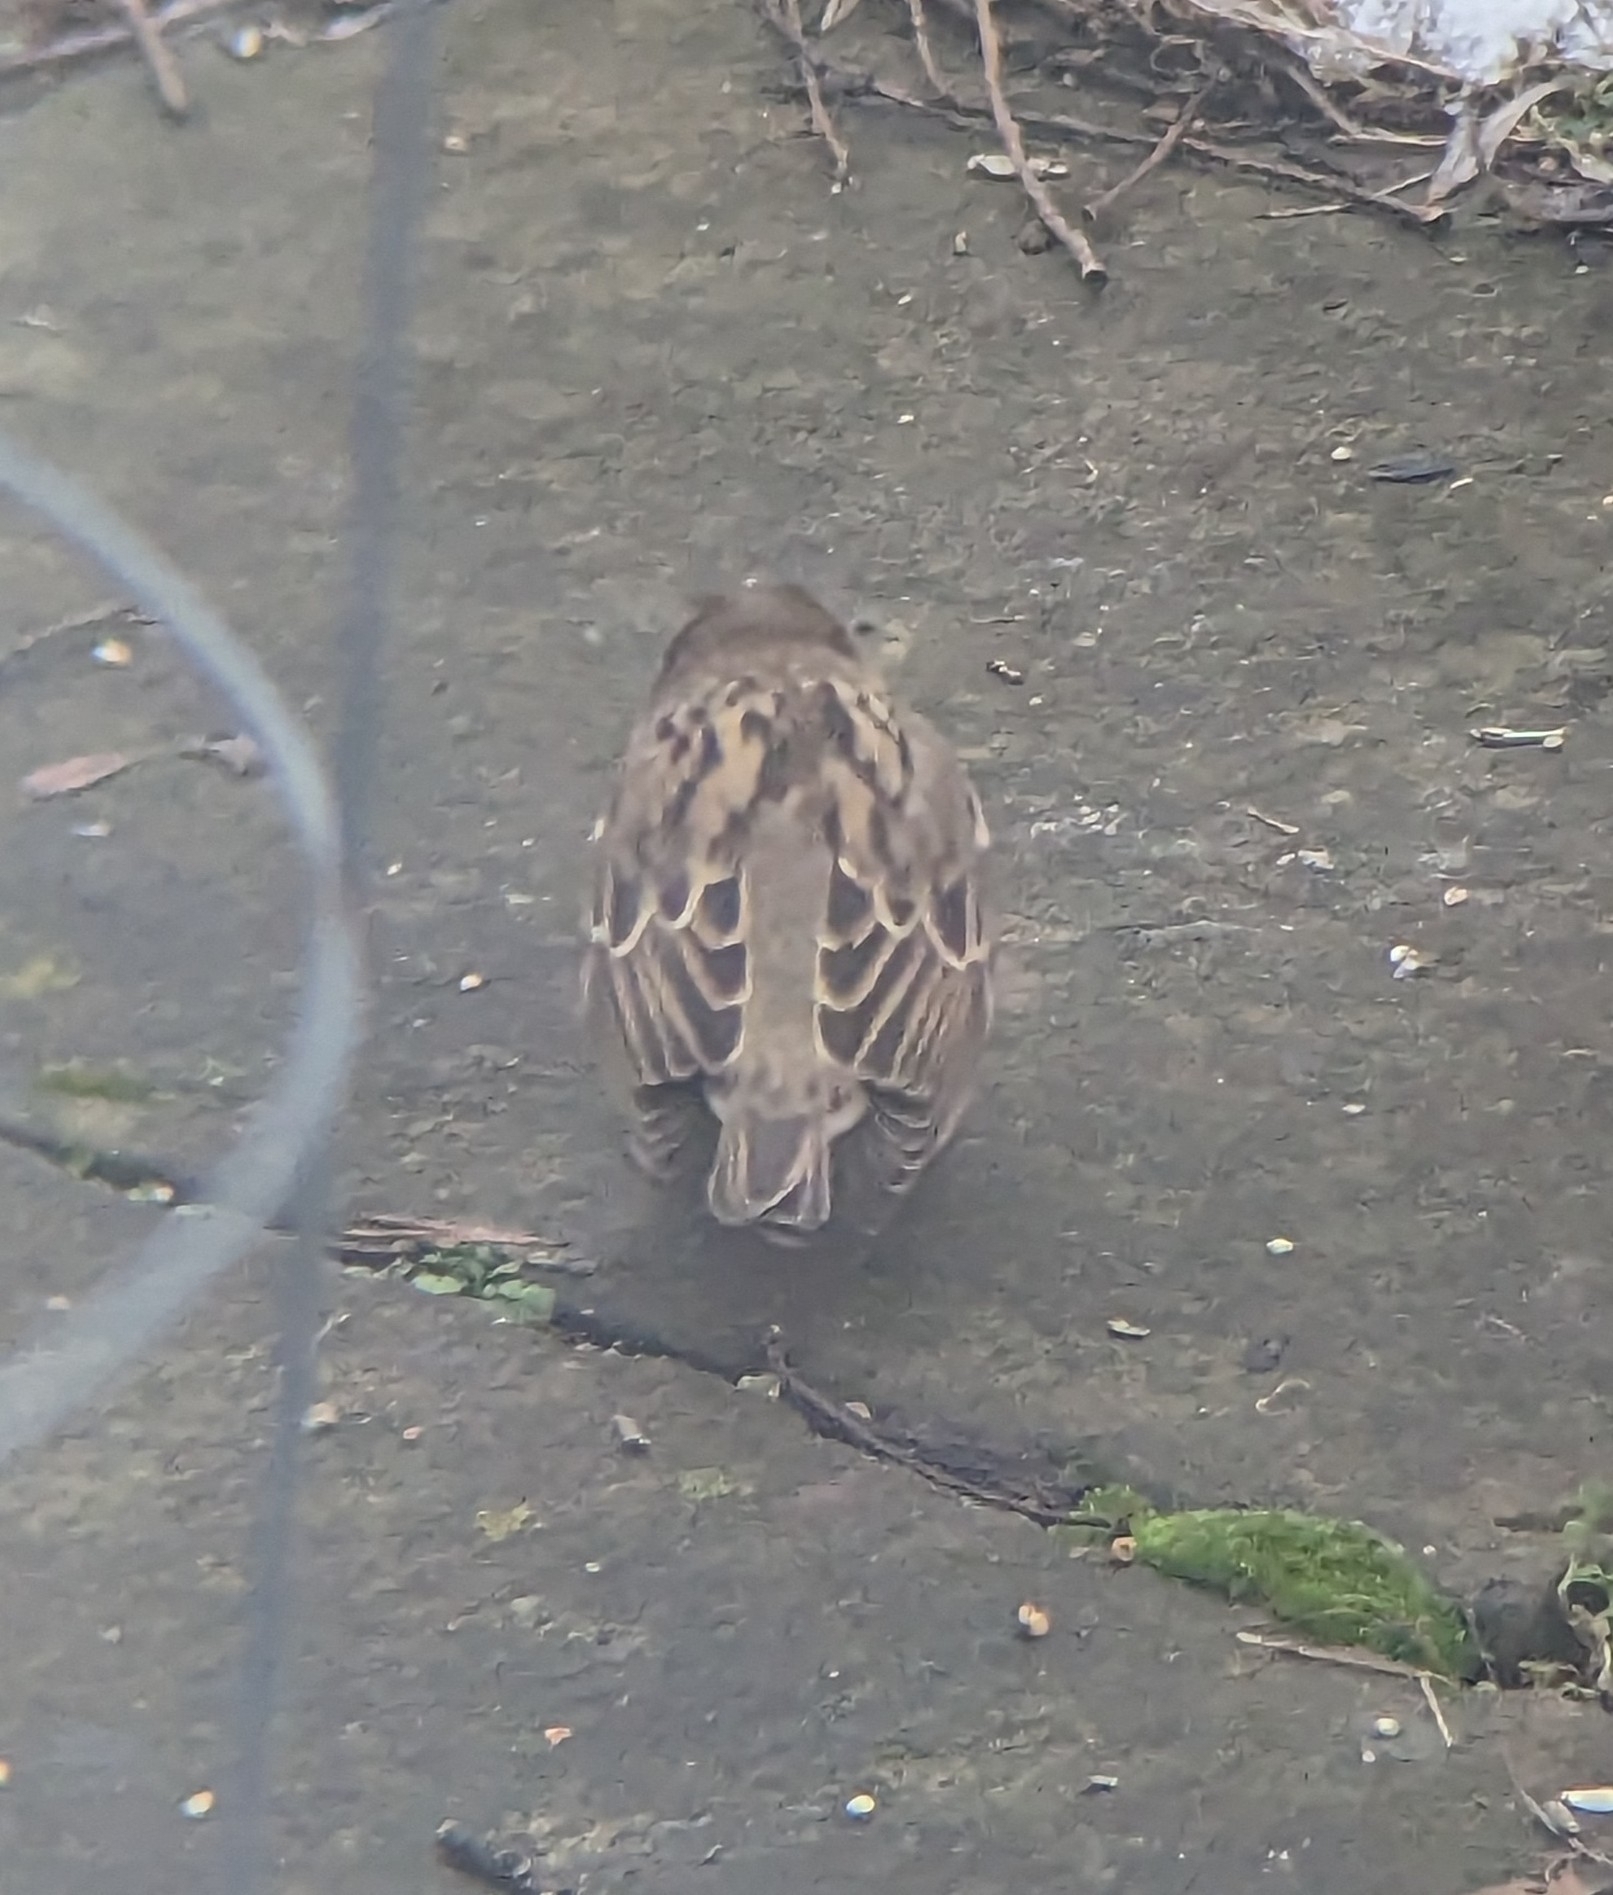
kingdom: Animalia
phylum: Chordata
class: Aves
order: Passeriformes
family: Passeridae
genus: Passer
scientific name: Passer domesticus
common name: House sparrow
